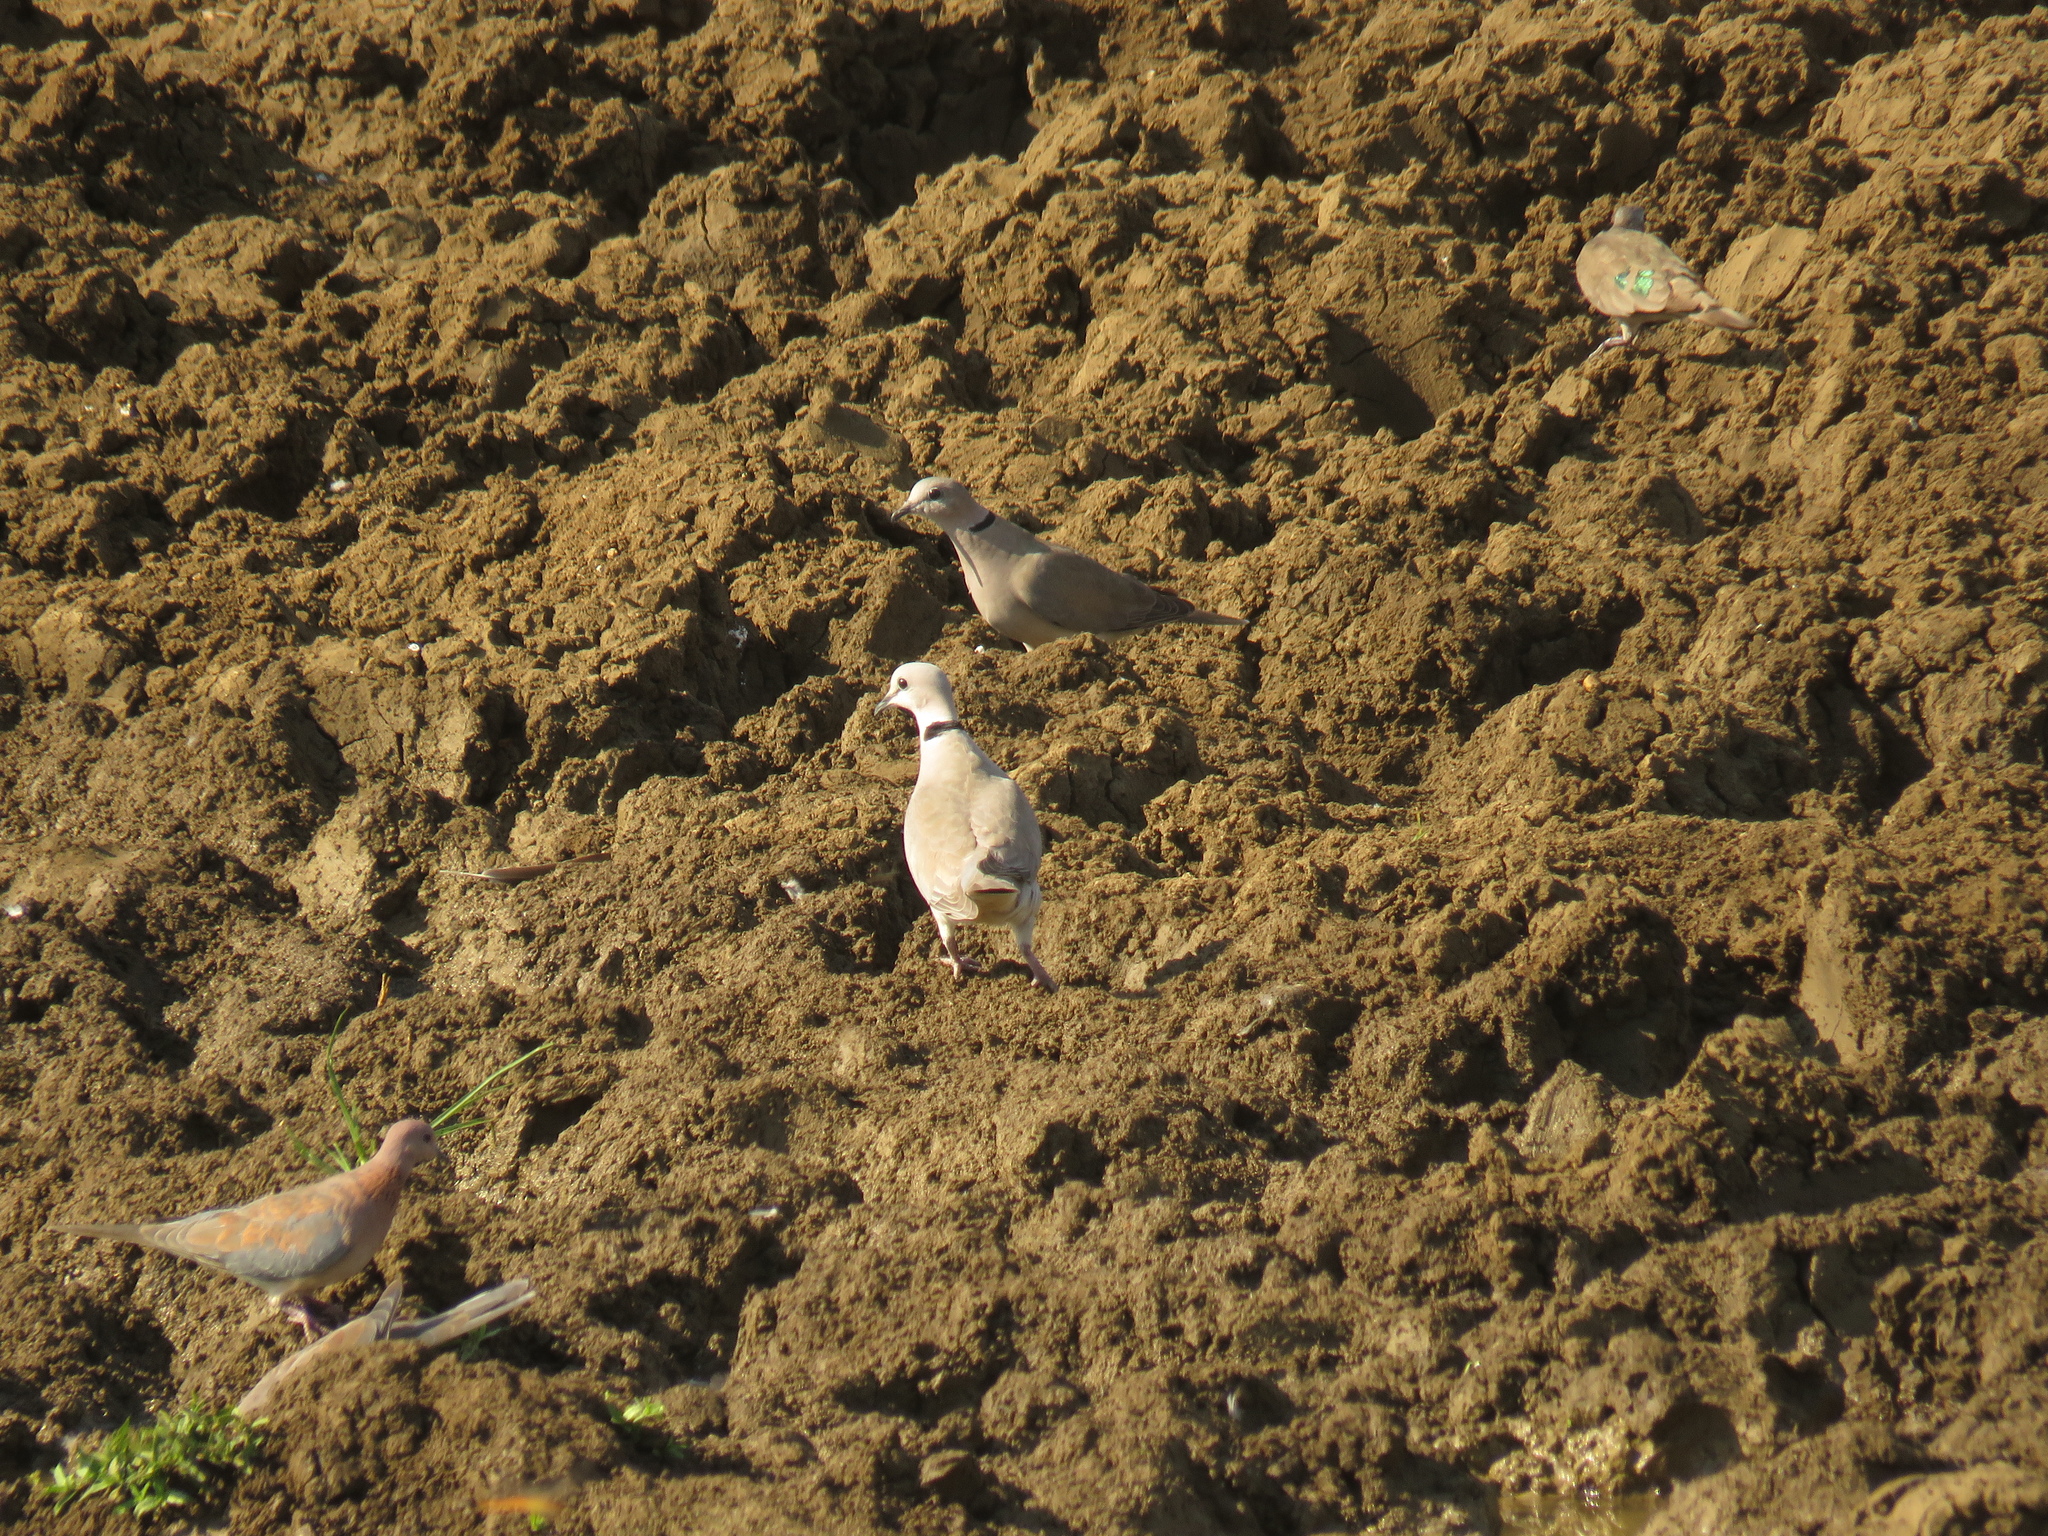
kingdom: Animalia
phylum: Chordata
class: Aves
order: Columbiformes
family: Columbidae
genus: Streptopelia
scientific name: Streptopelia capicola
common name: Ring-necked dove
